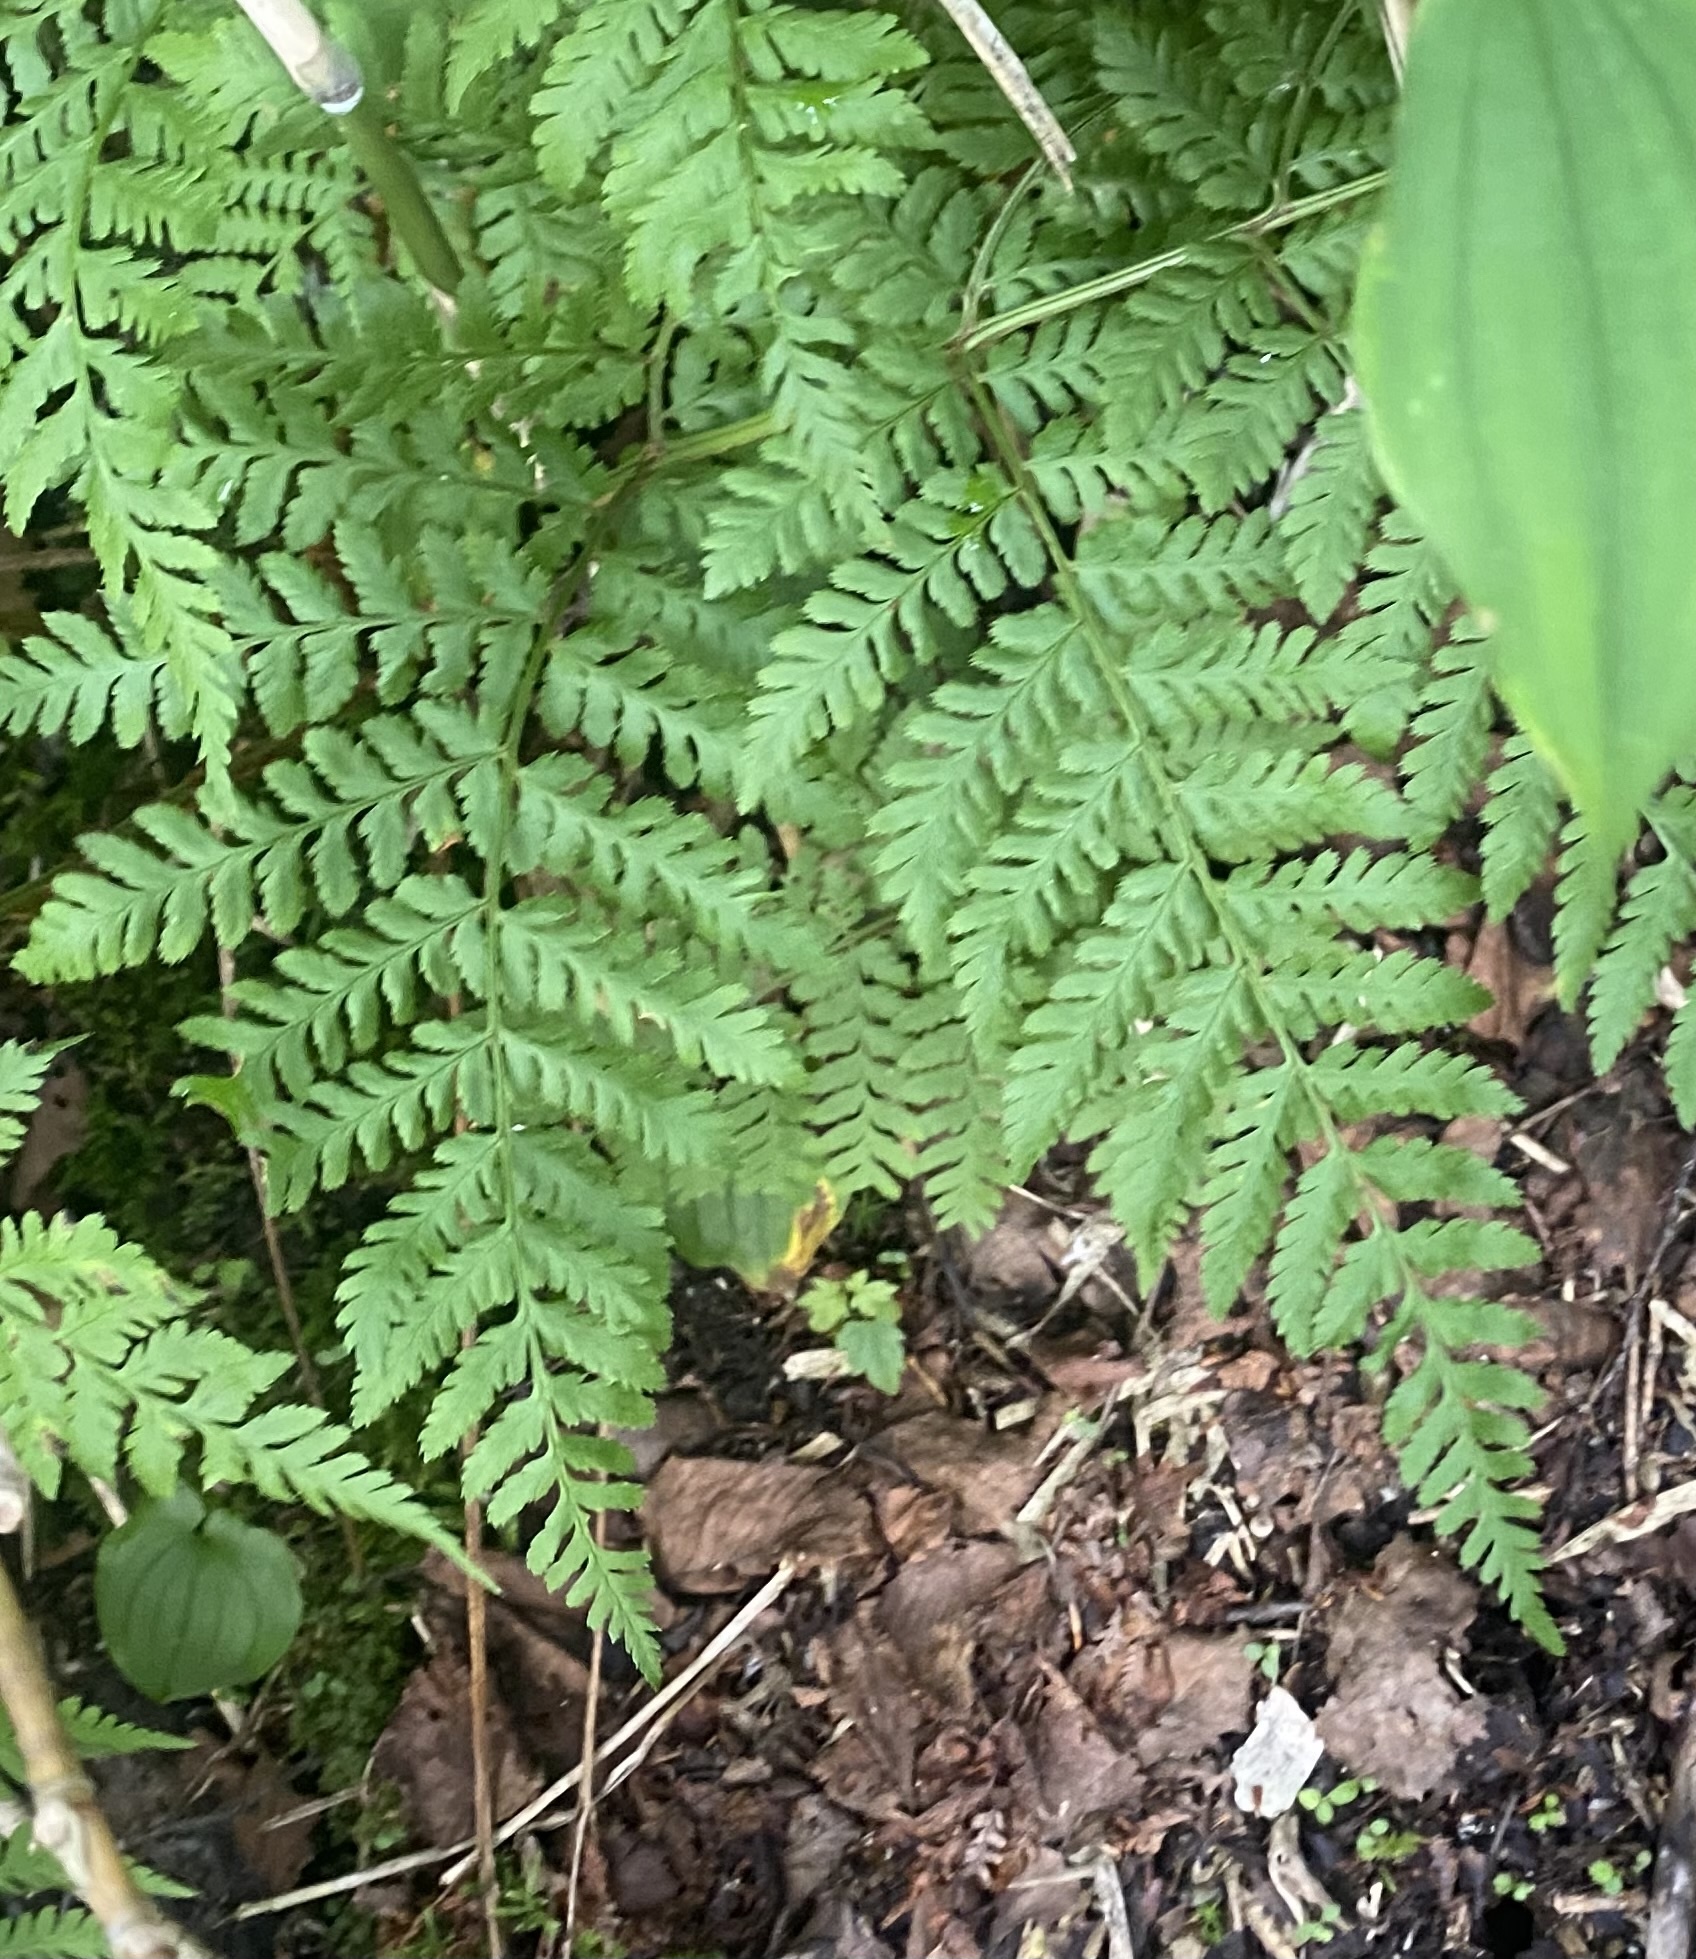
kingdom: Plantae
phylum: Tracheophyta
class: Polypodiopsida
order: Polypodiales
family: Dryopteridaceae
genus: Dryopteris
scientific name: Dryopteris expansa
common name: Northern buckler fern
